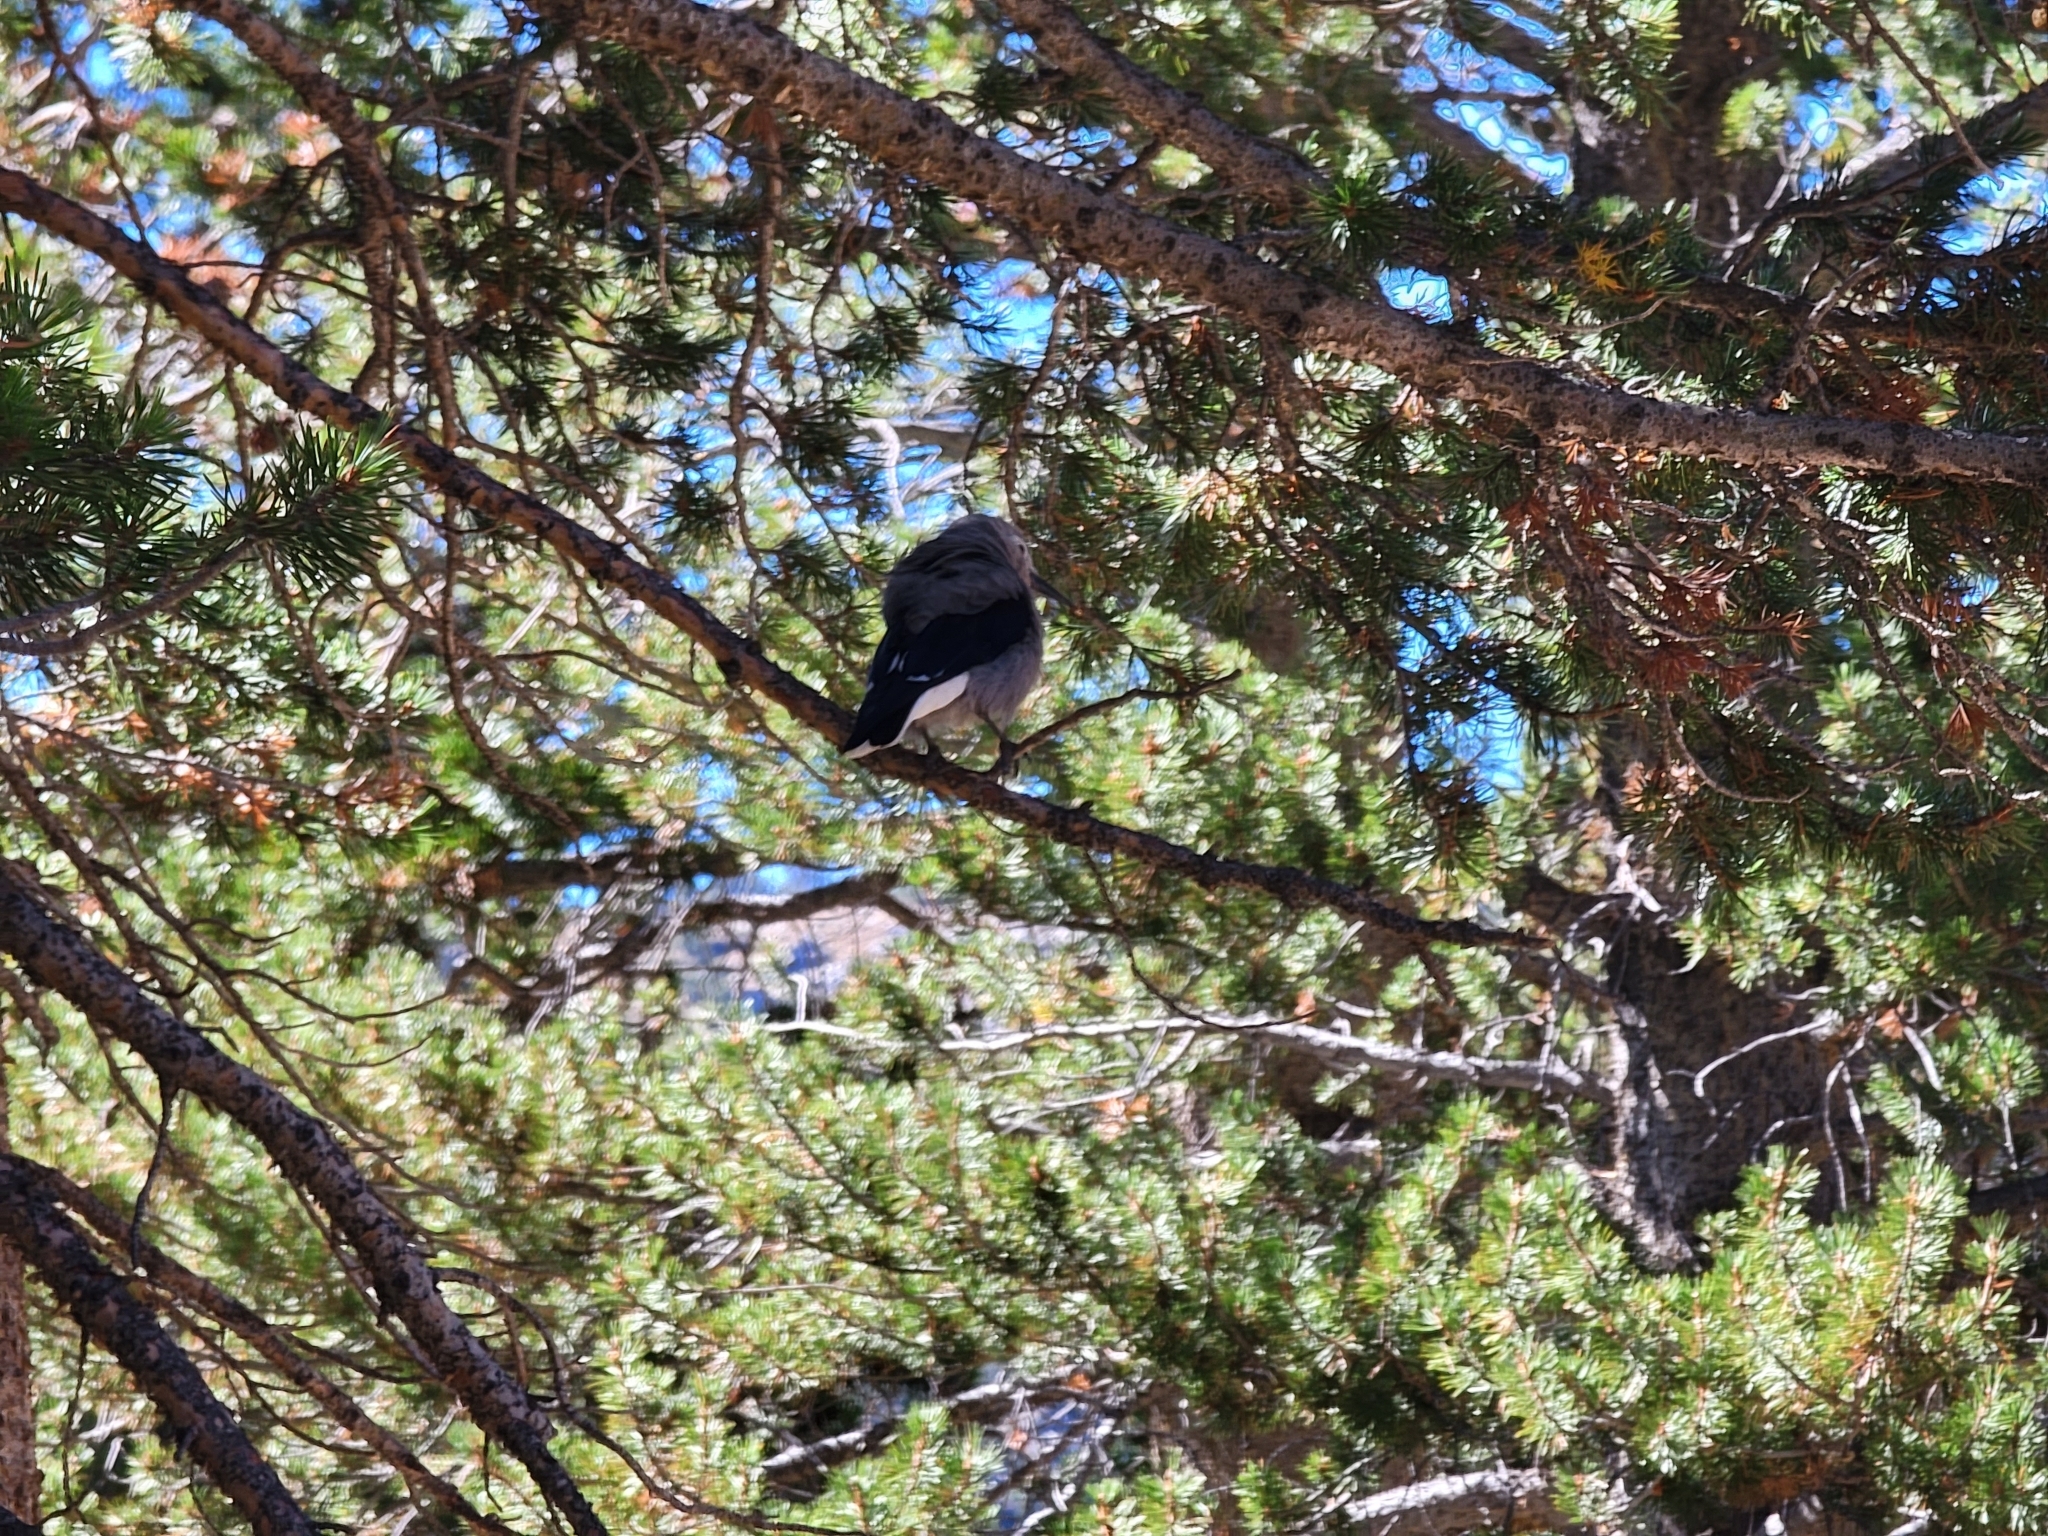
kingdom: Animalia
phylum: Chordata
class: Aves
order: Passeriformes
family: Corvidae
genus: Nucifraga
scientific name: Nucifraga columbiana
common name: Clark's nutcracker
